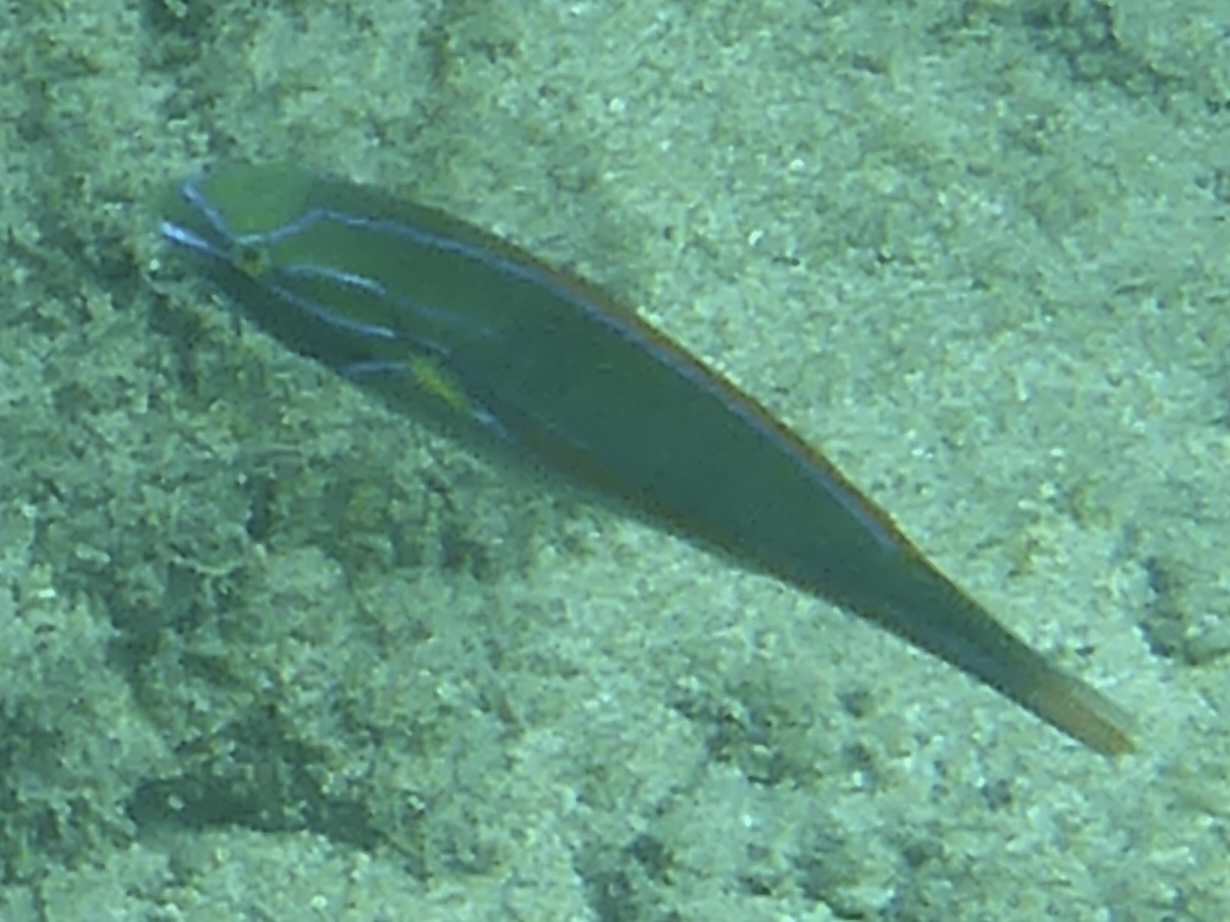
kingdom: Animalia
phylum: Chordata
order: Perciformes
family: Labridae
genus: Stethojulis
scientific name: Stethojulis balteata
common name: Belted wrasse
